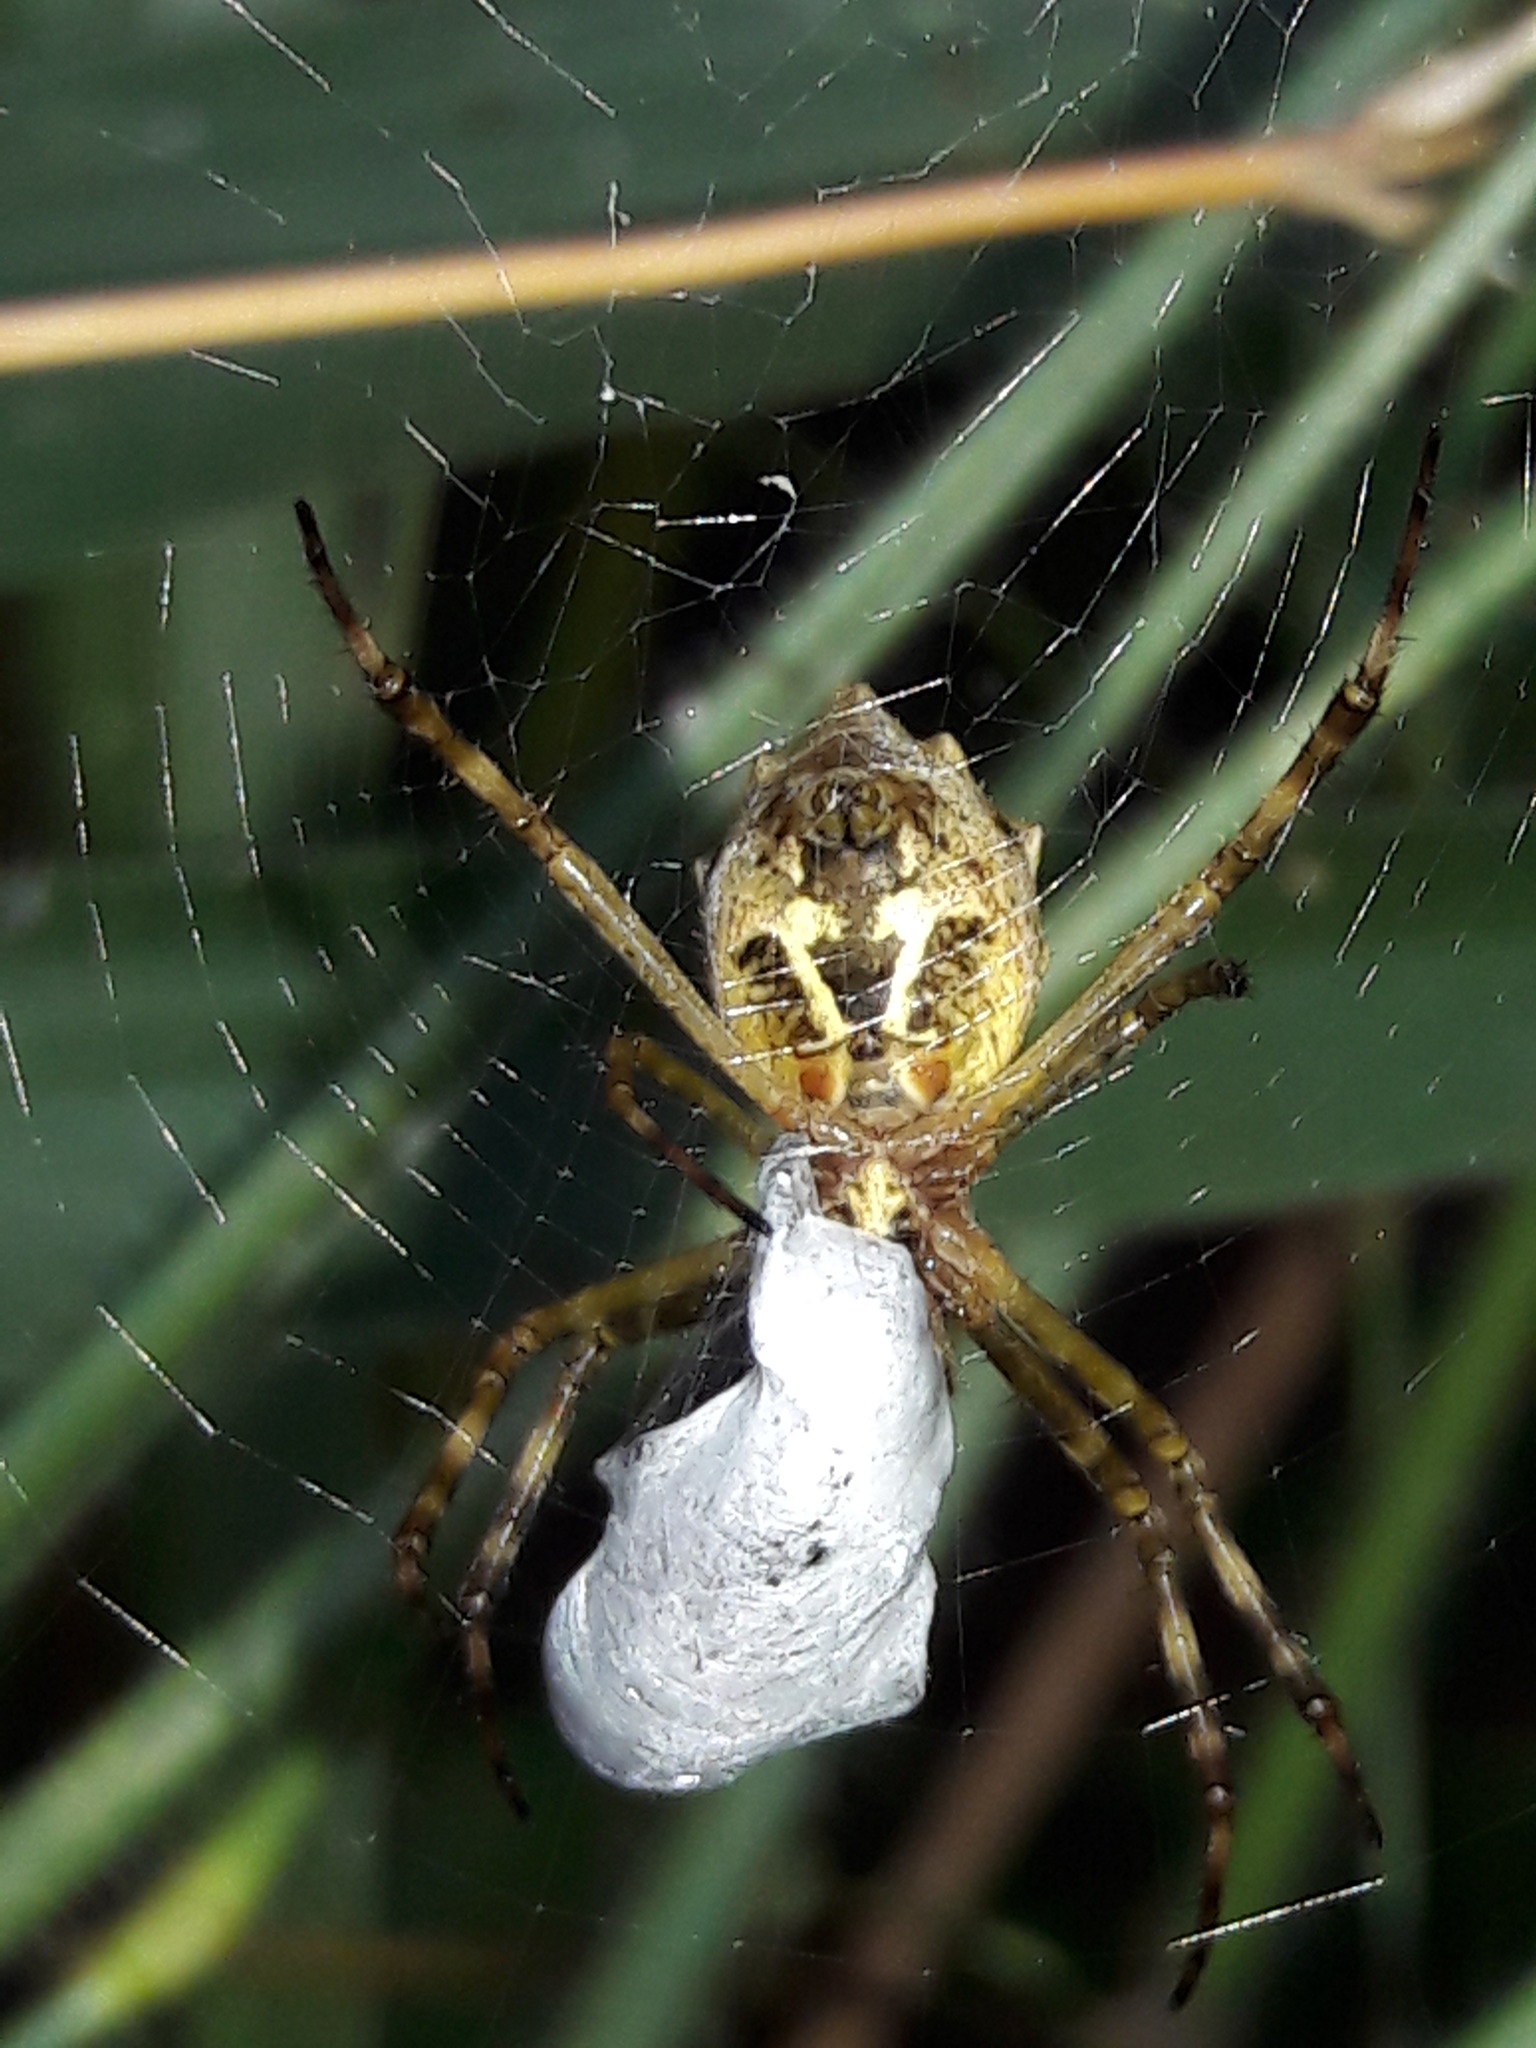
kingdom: Animalia
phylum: Arthropoda
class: Arachnida
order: Araneae
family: Araneidae
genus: Argiope
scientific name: Argiope argentata
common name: Orb weavers
